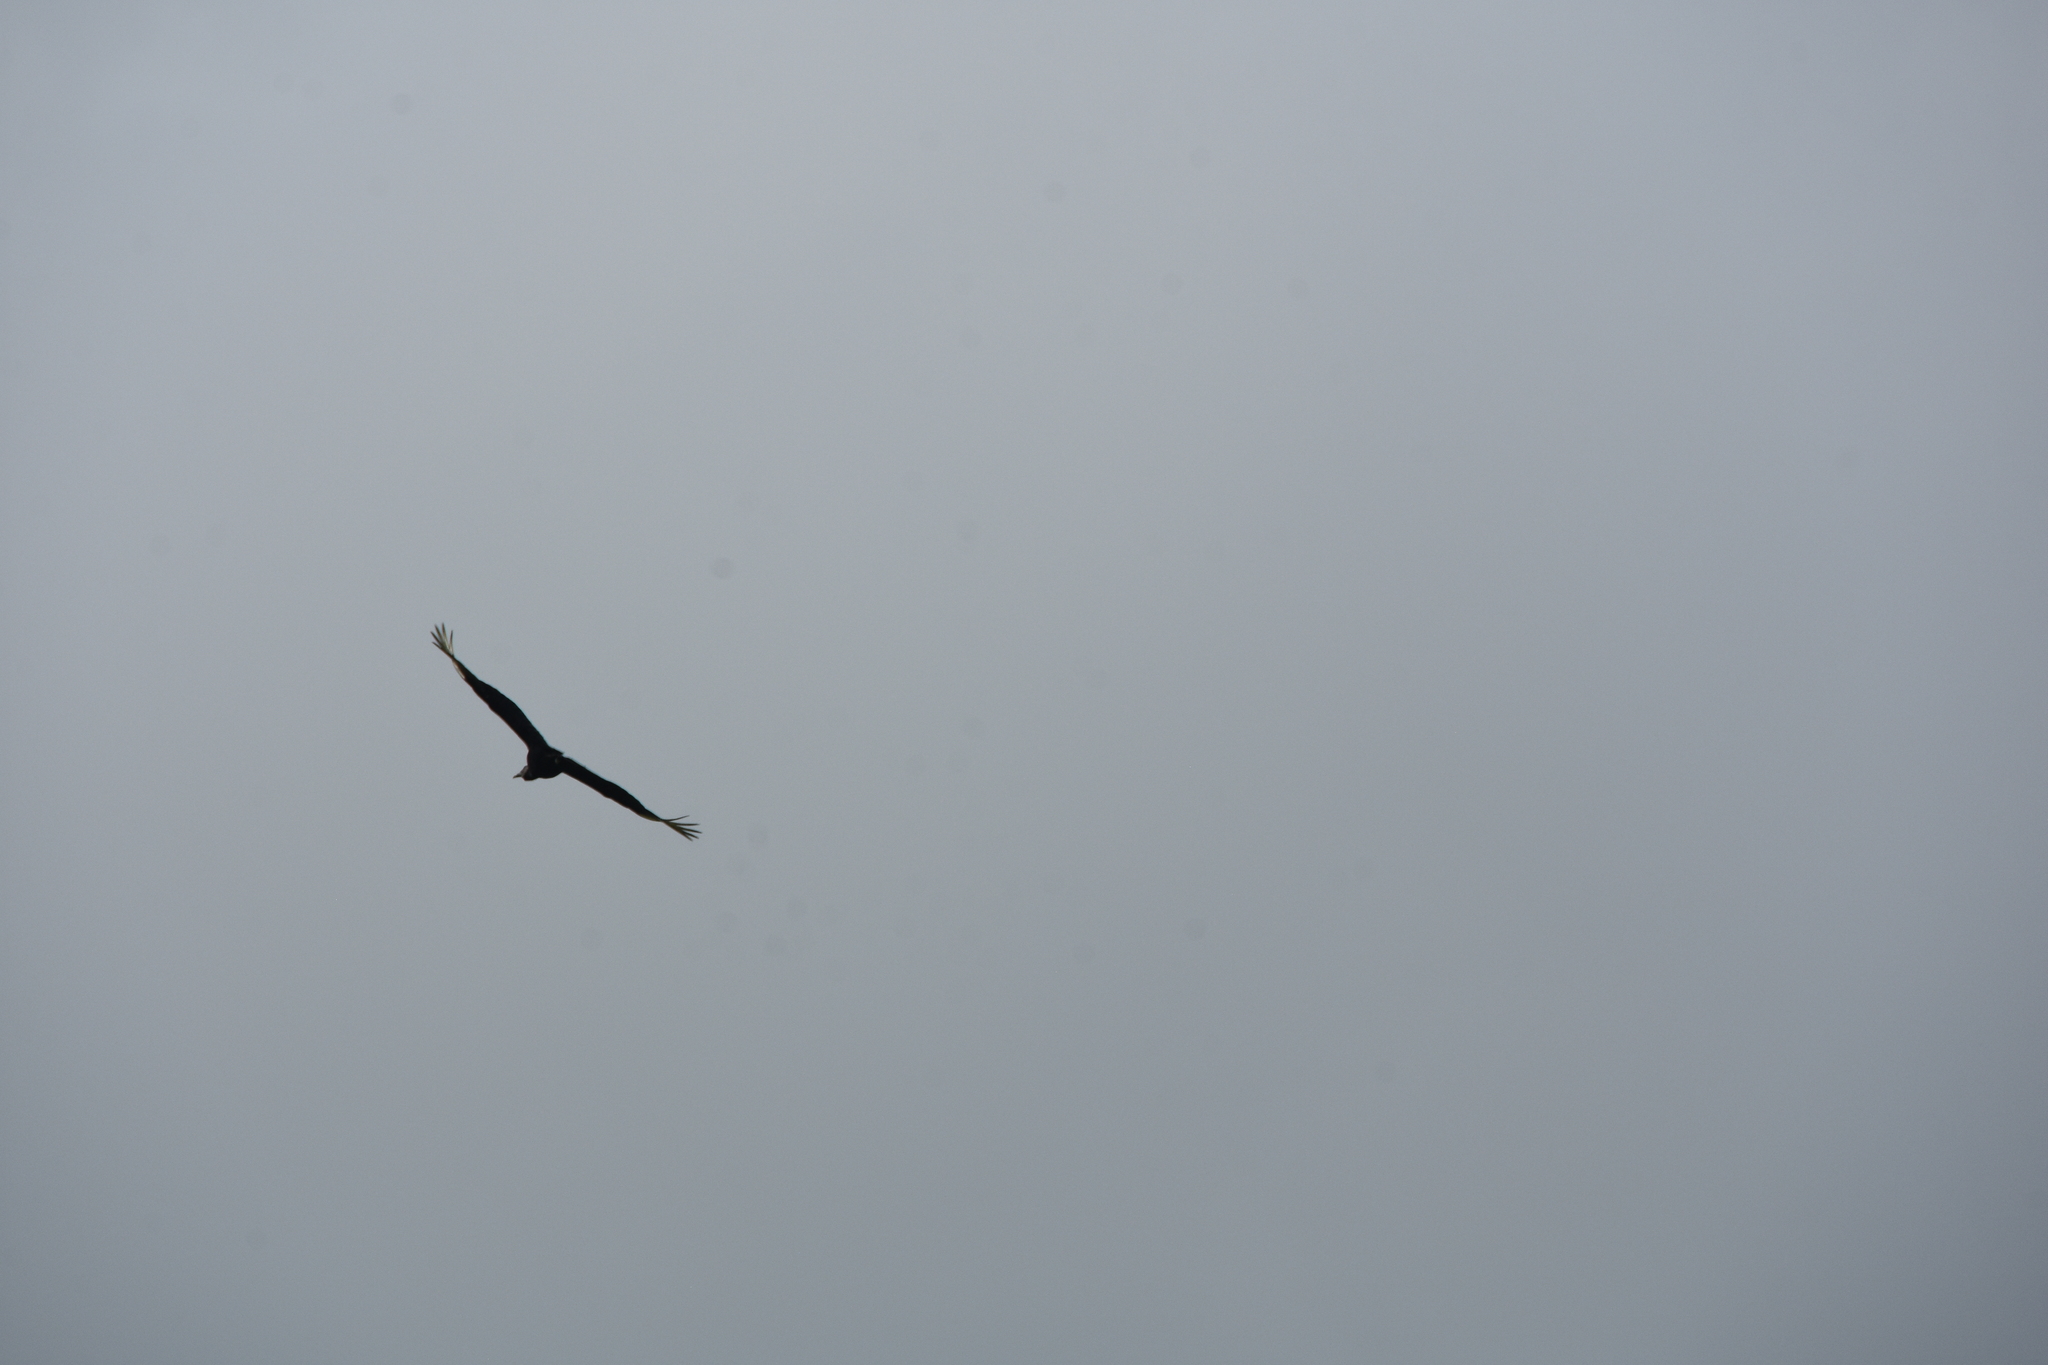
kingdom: Animalia
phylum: Chordata
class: Aves
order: Accipitriformes
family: Cathartidae
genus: Coragyps
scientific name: Coragyps atratus
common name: Black vulture
